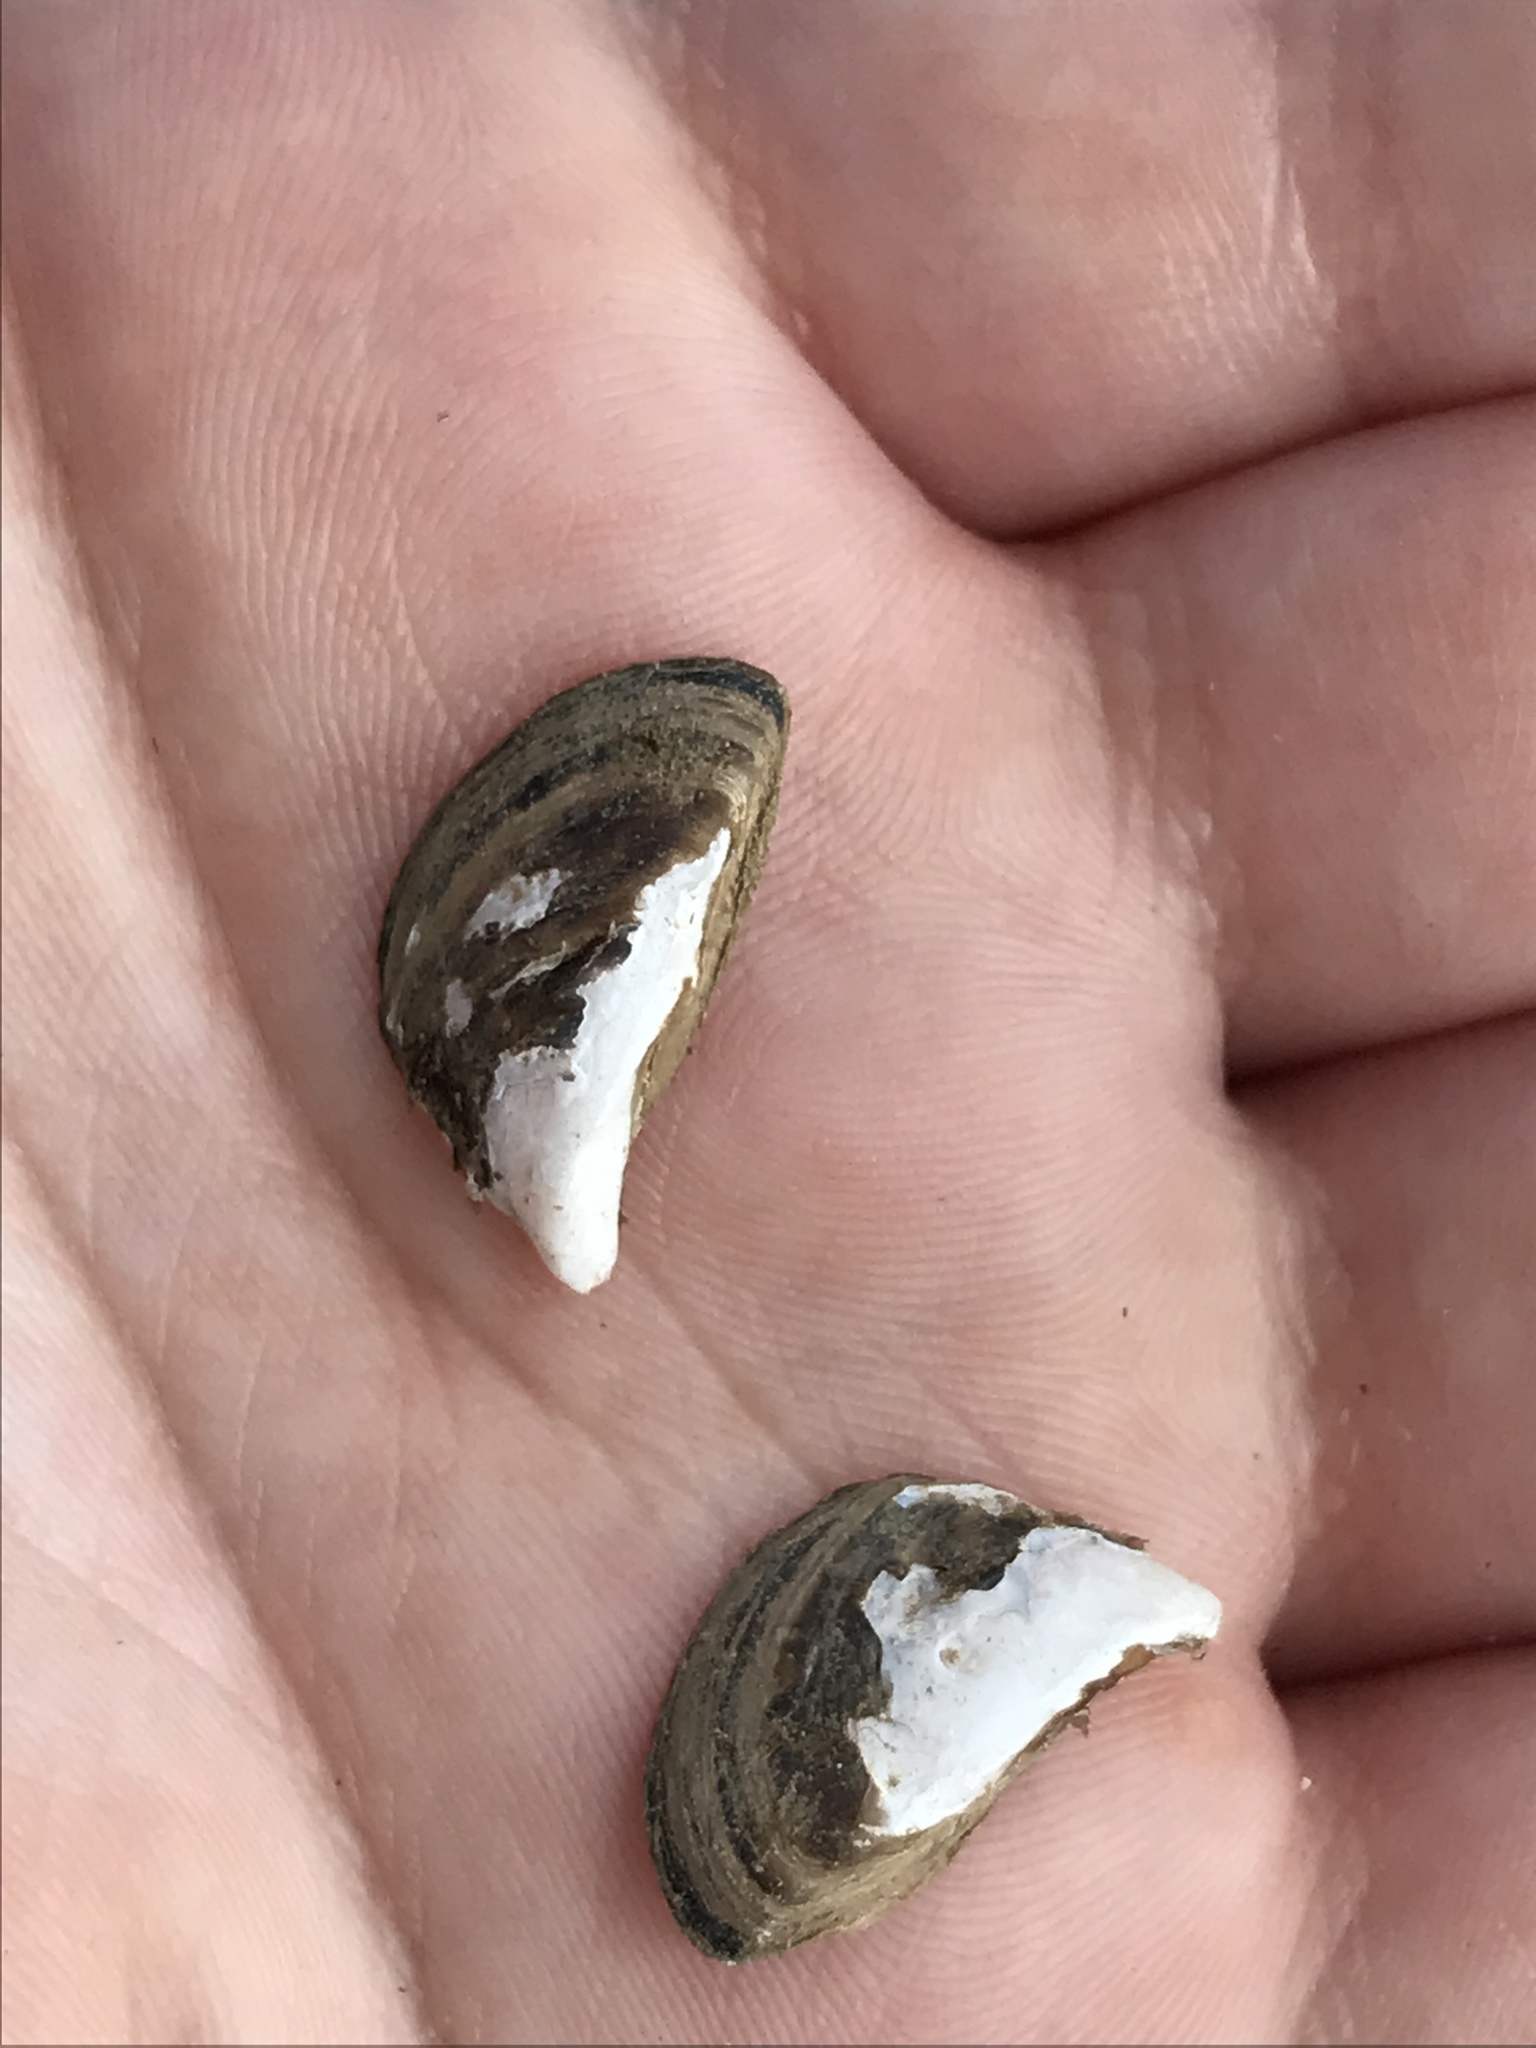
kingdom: Animalia
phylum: Mollusca
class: Bivalvia
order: Myida
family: Dreissenidae
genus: Dreissena
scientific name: Dreissena polymorpha
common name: Zebra mussel
